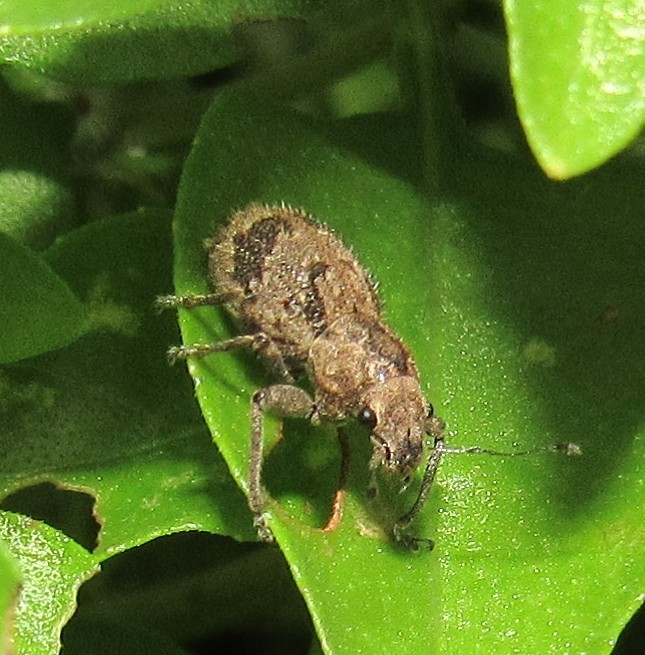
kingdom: Animalia
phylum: Arthropoda
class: Insecta
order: Coleoptera
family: Curculionidae
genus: Pantomorus
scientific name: Pantomorus
